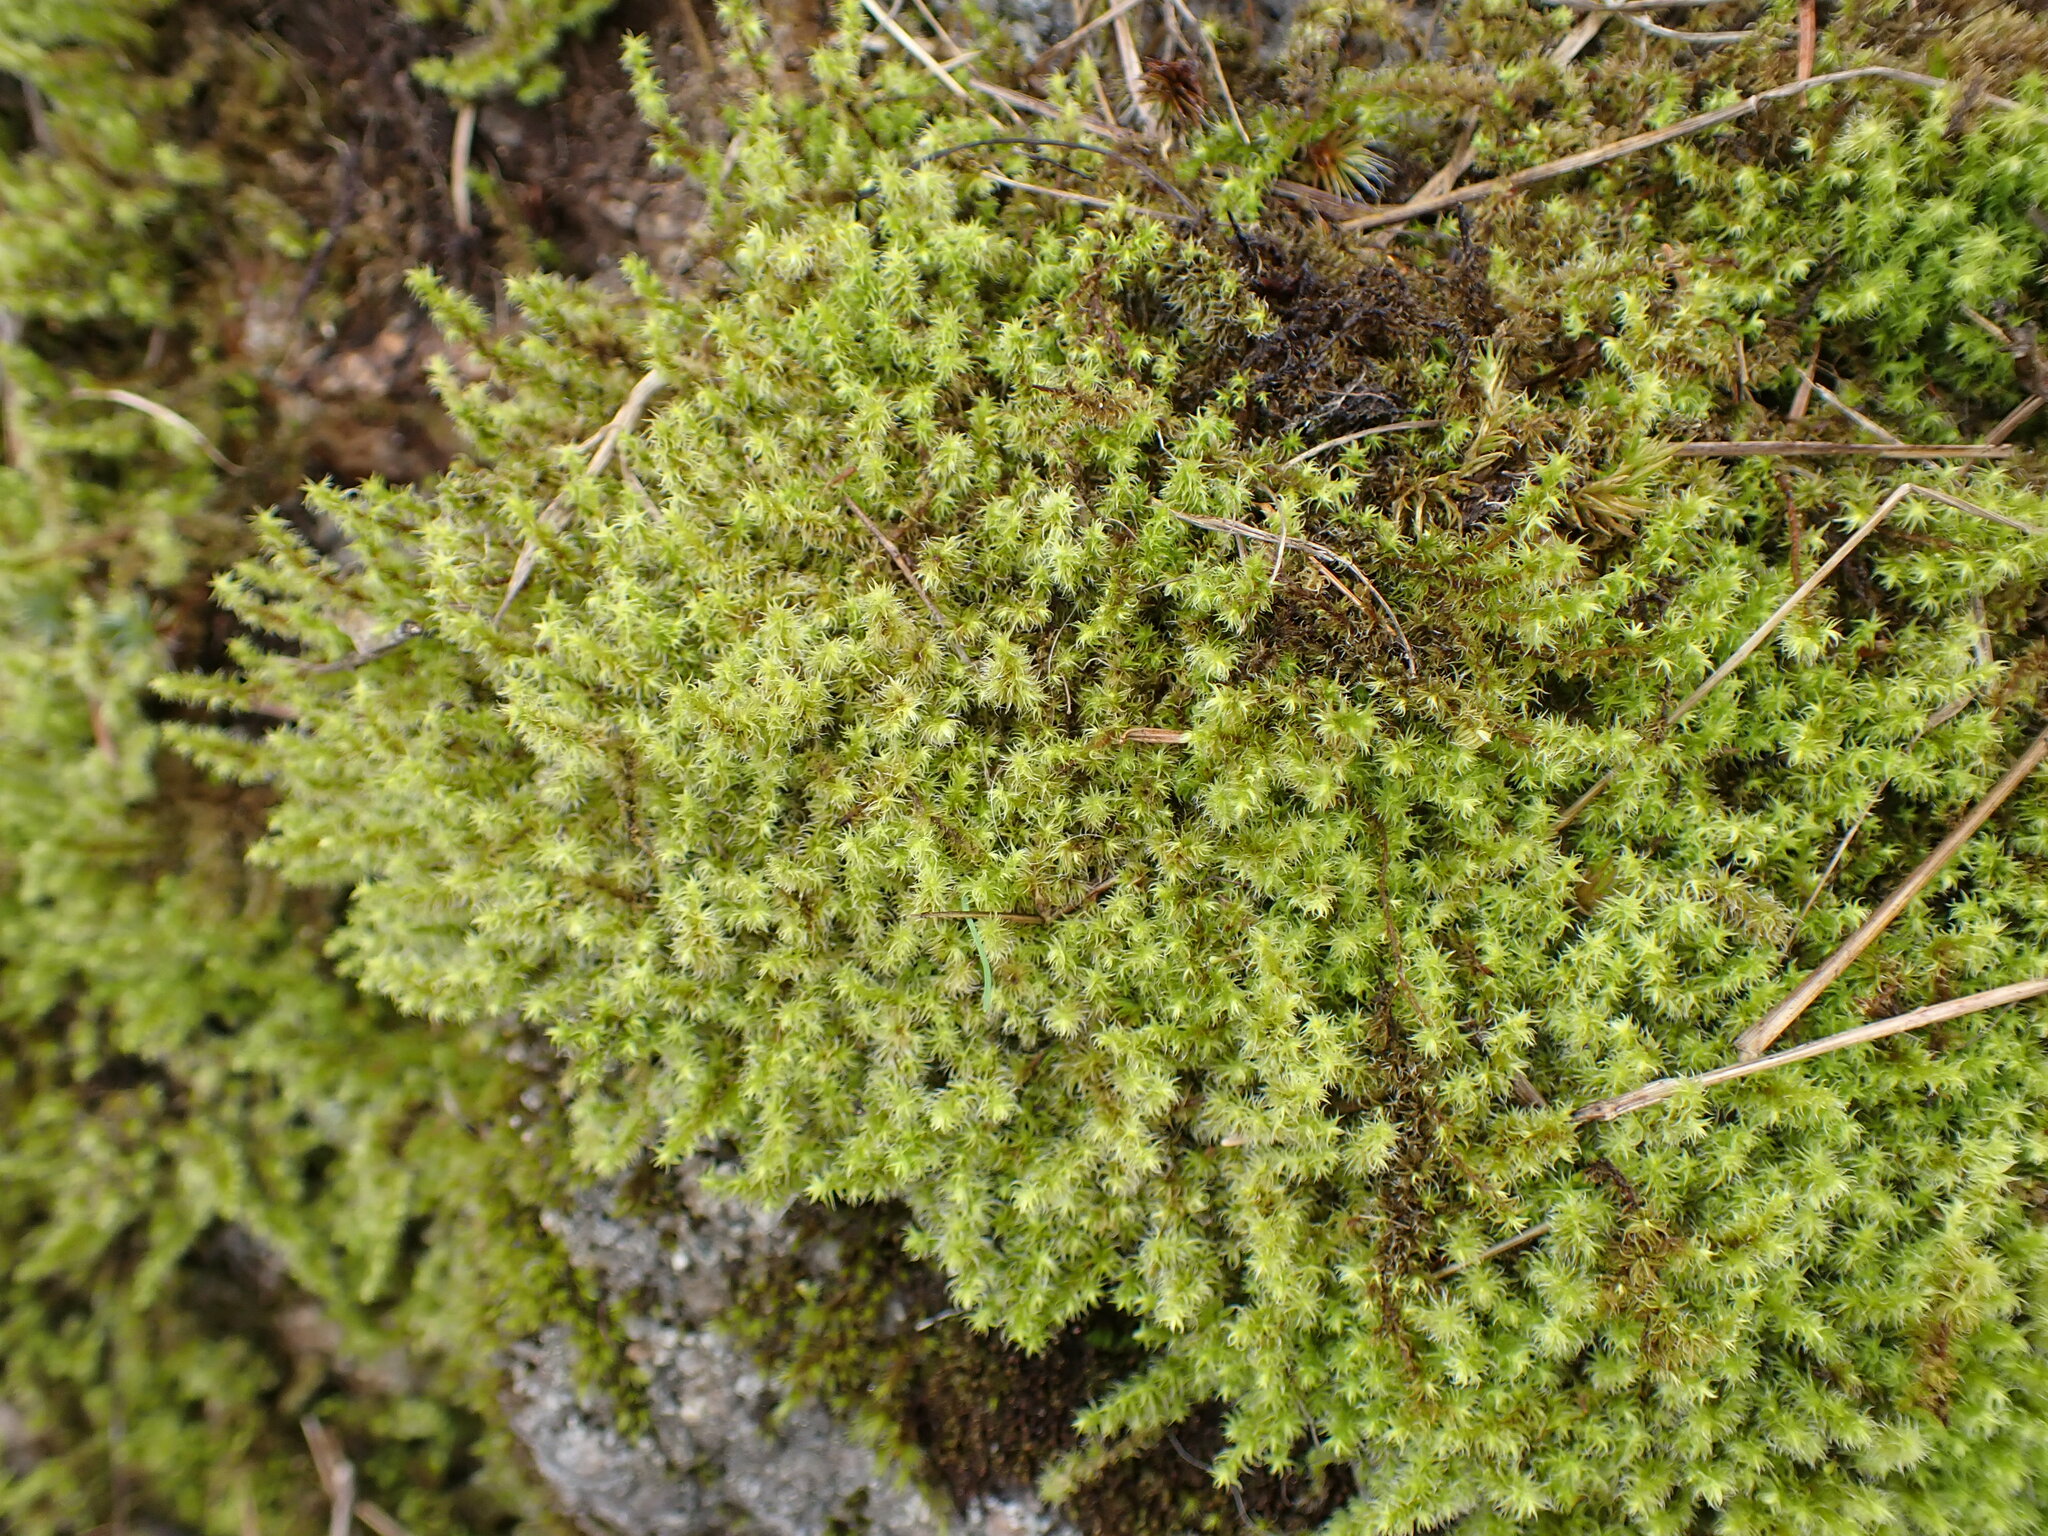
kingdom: Plantae
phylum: Bryophyta
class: Bryopsida
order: Grimmiales
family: Grimmiaceae
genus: Niphotrichum
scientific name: Niphotrichum elongatum
